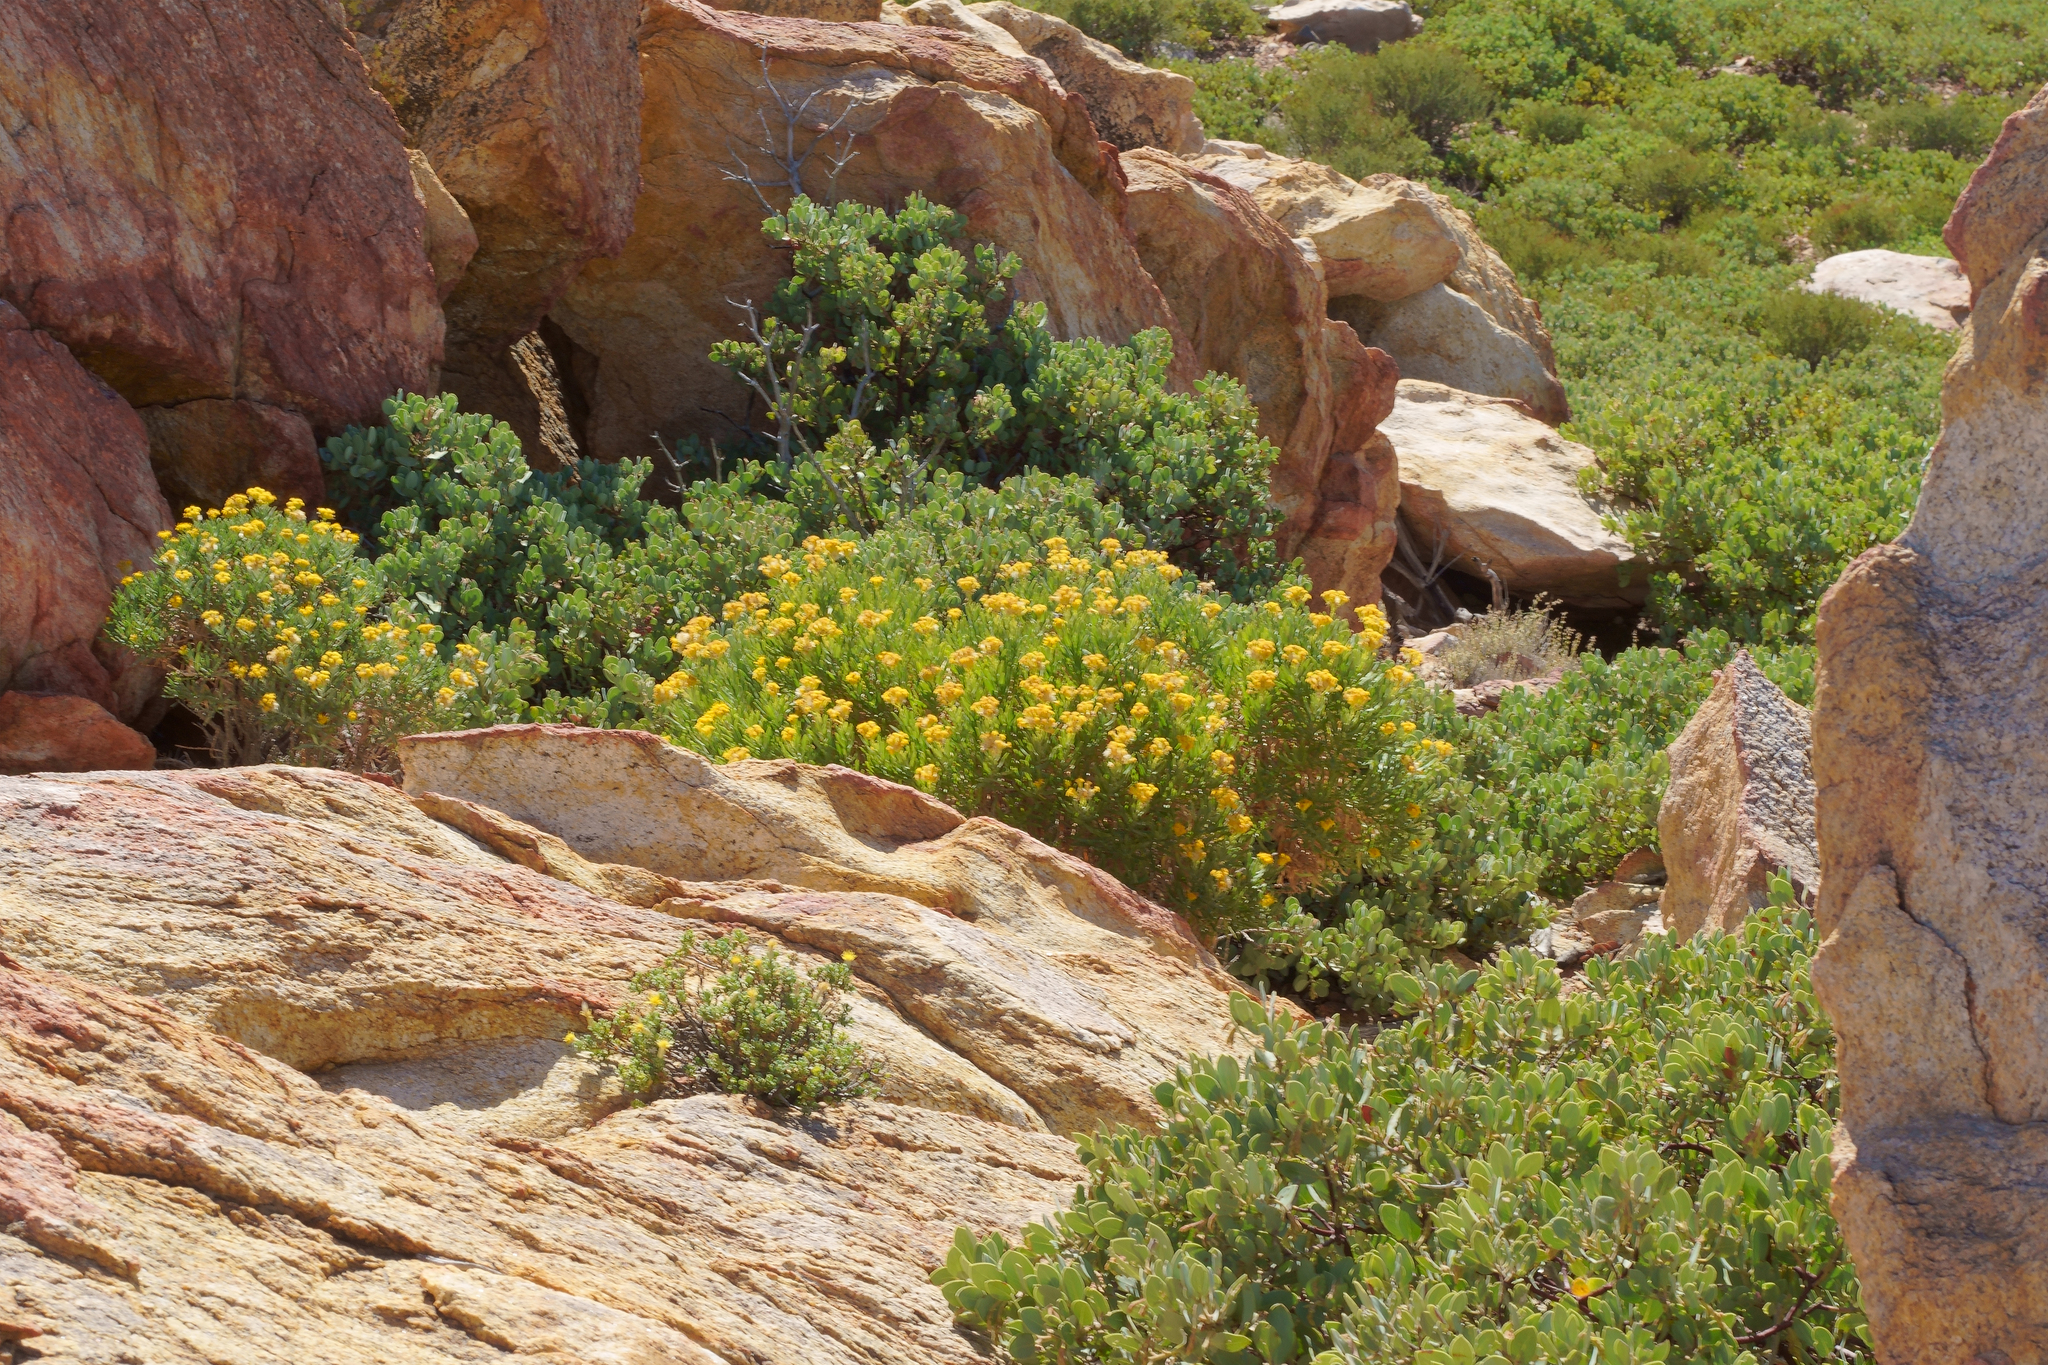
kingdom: Plantae
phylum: Tracheophyta
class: Magnoliopsida
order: Asterales
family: Asteraceae
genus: Ericameria
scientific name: Ericameria parishii
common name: Parish's goldenbush
